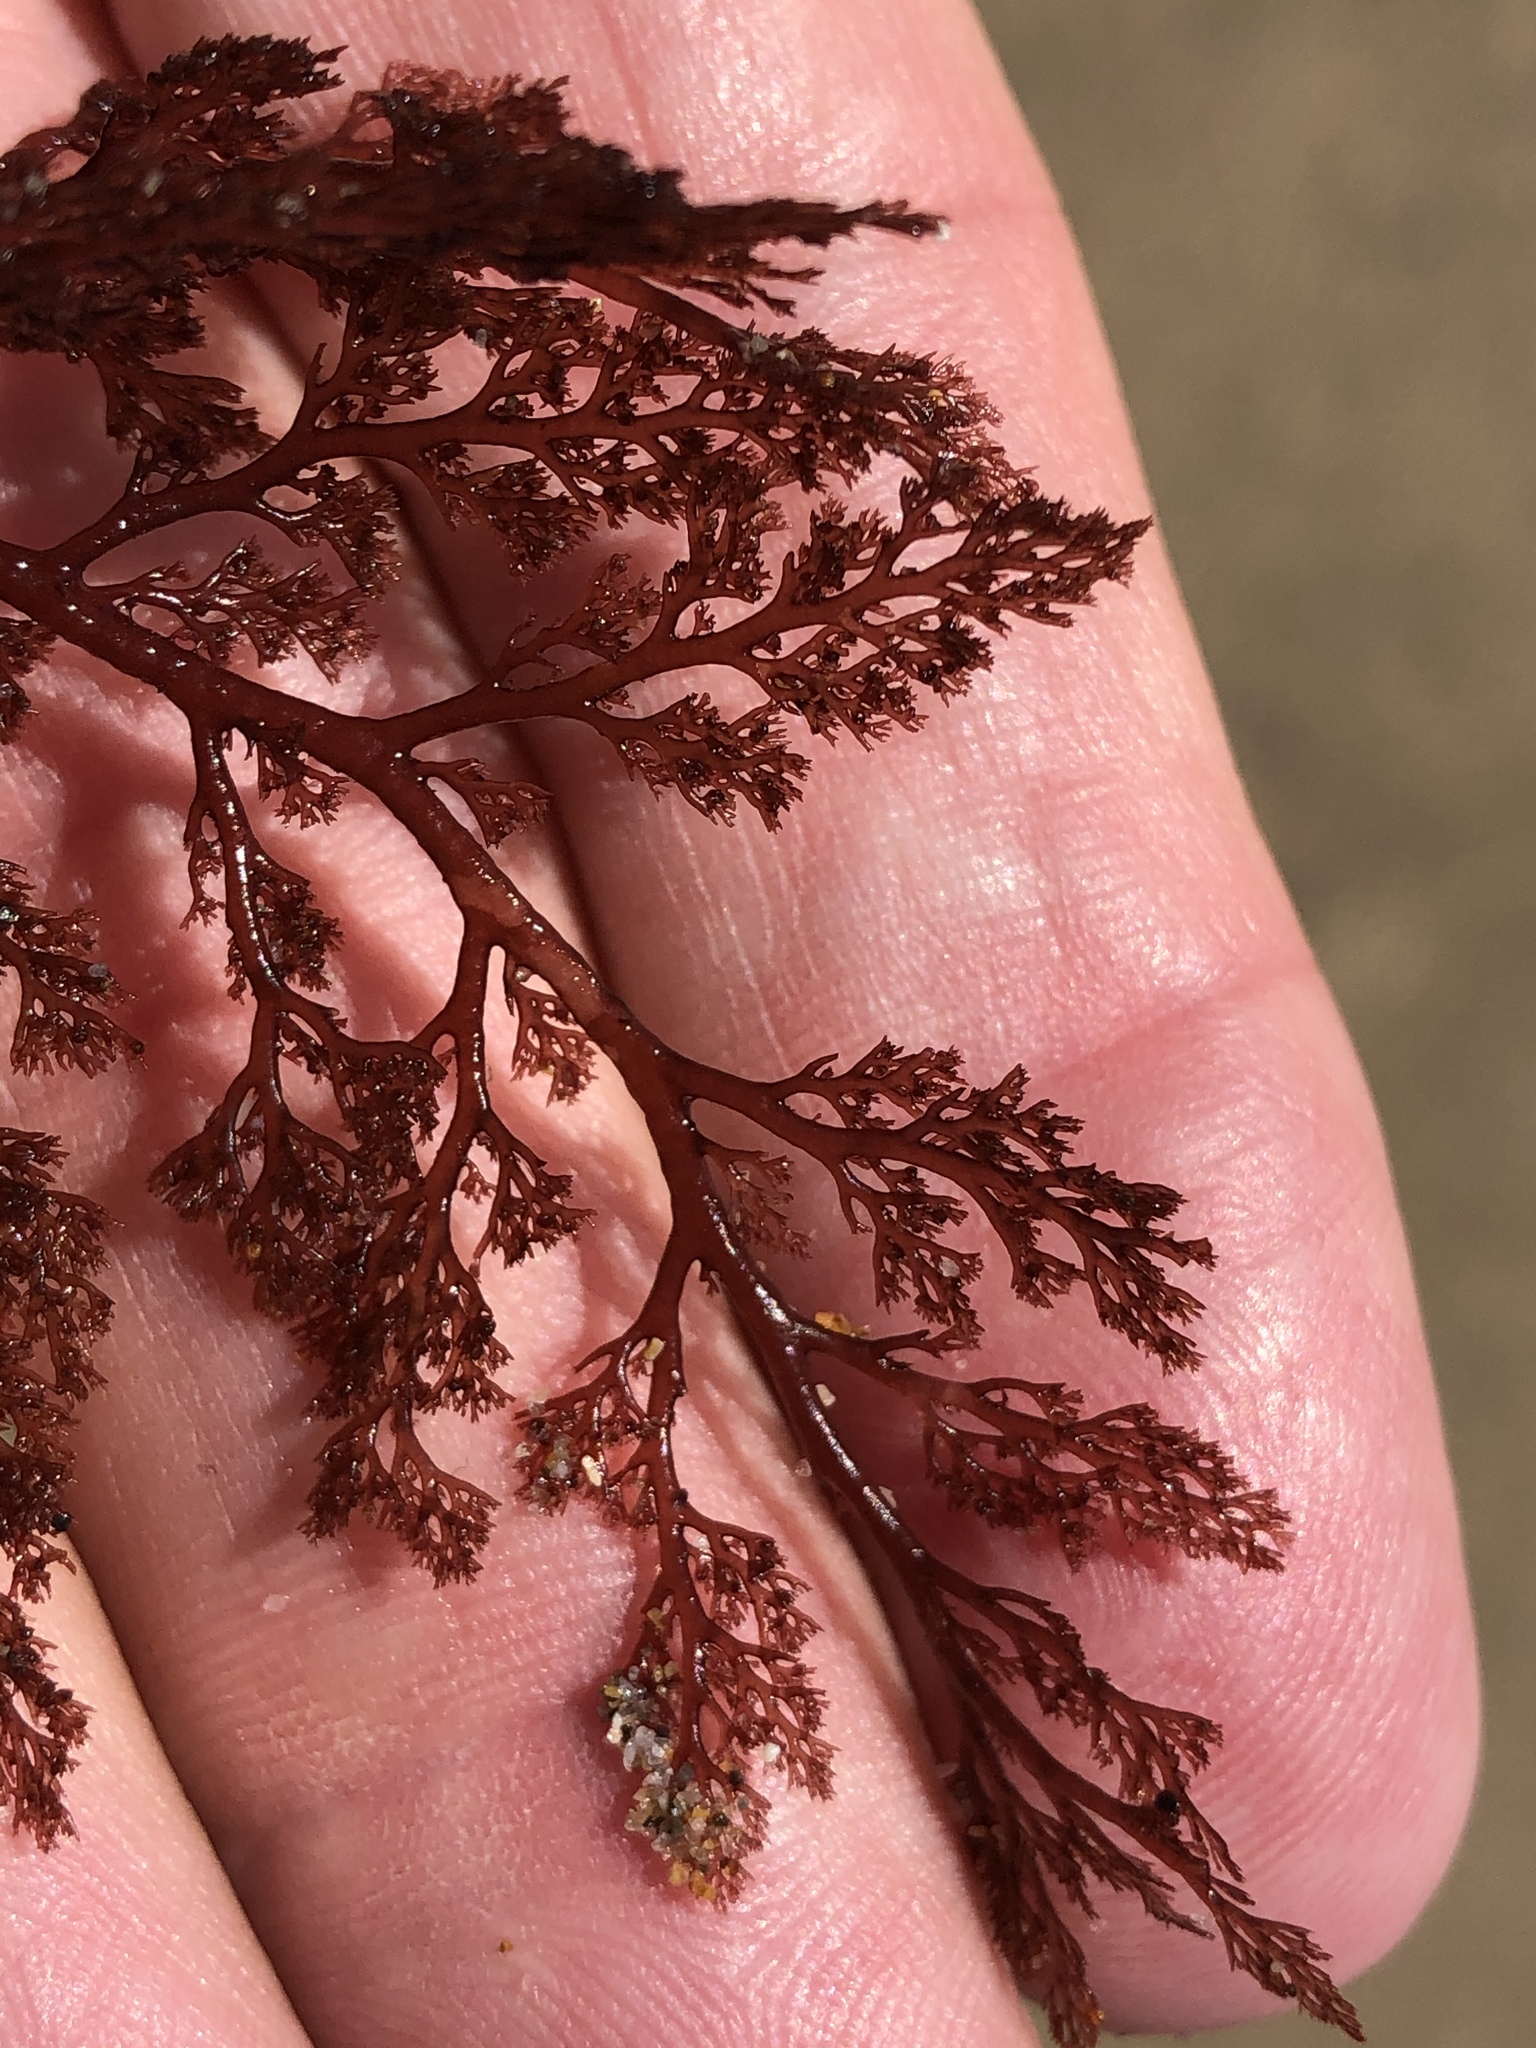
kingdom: Plantae
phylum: Rhodophyta
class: Florideophyceae
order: Ceramiales
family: Ceramiaceae
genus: Microcladia
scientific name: Microcladia coulteri
